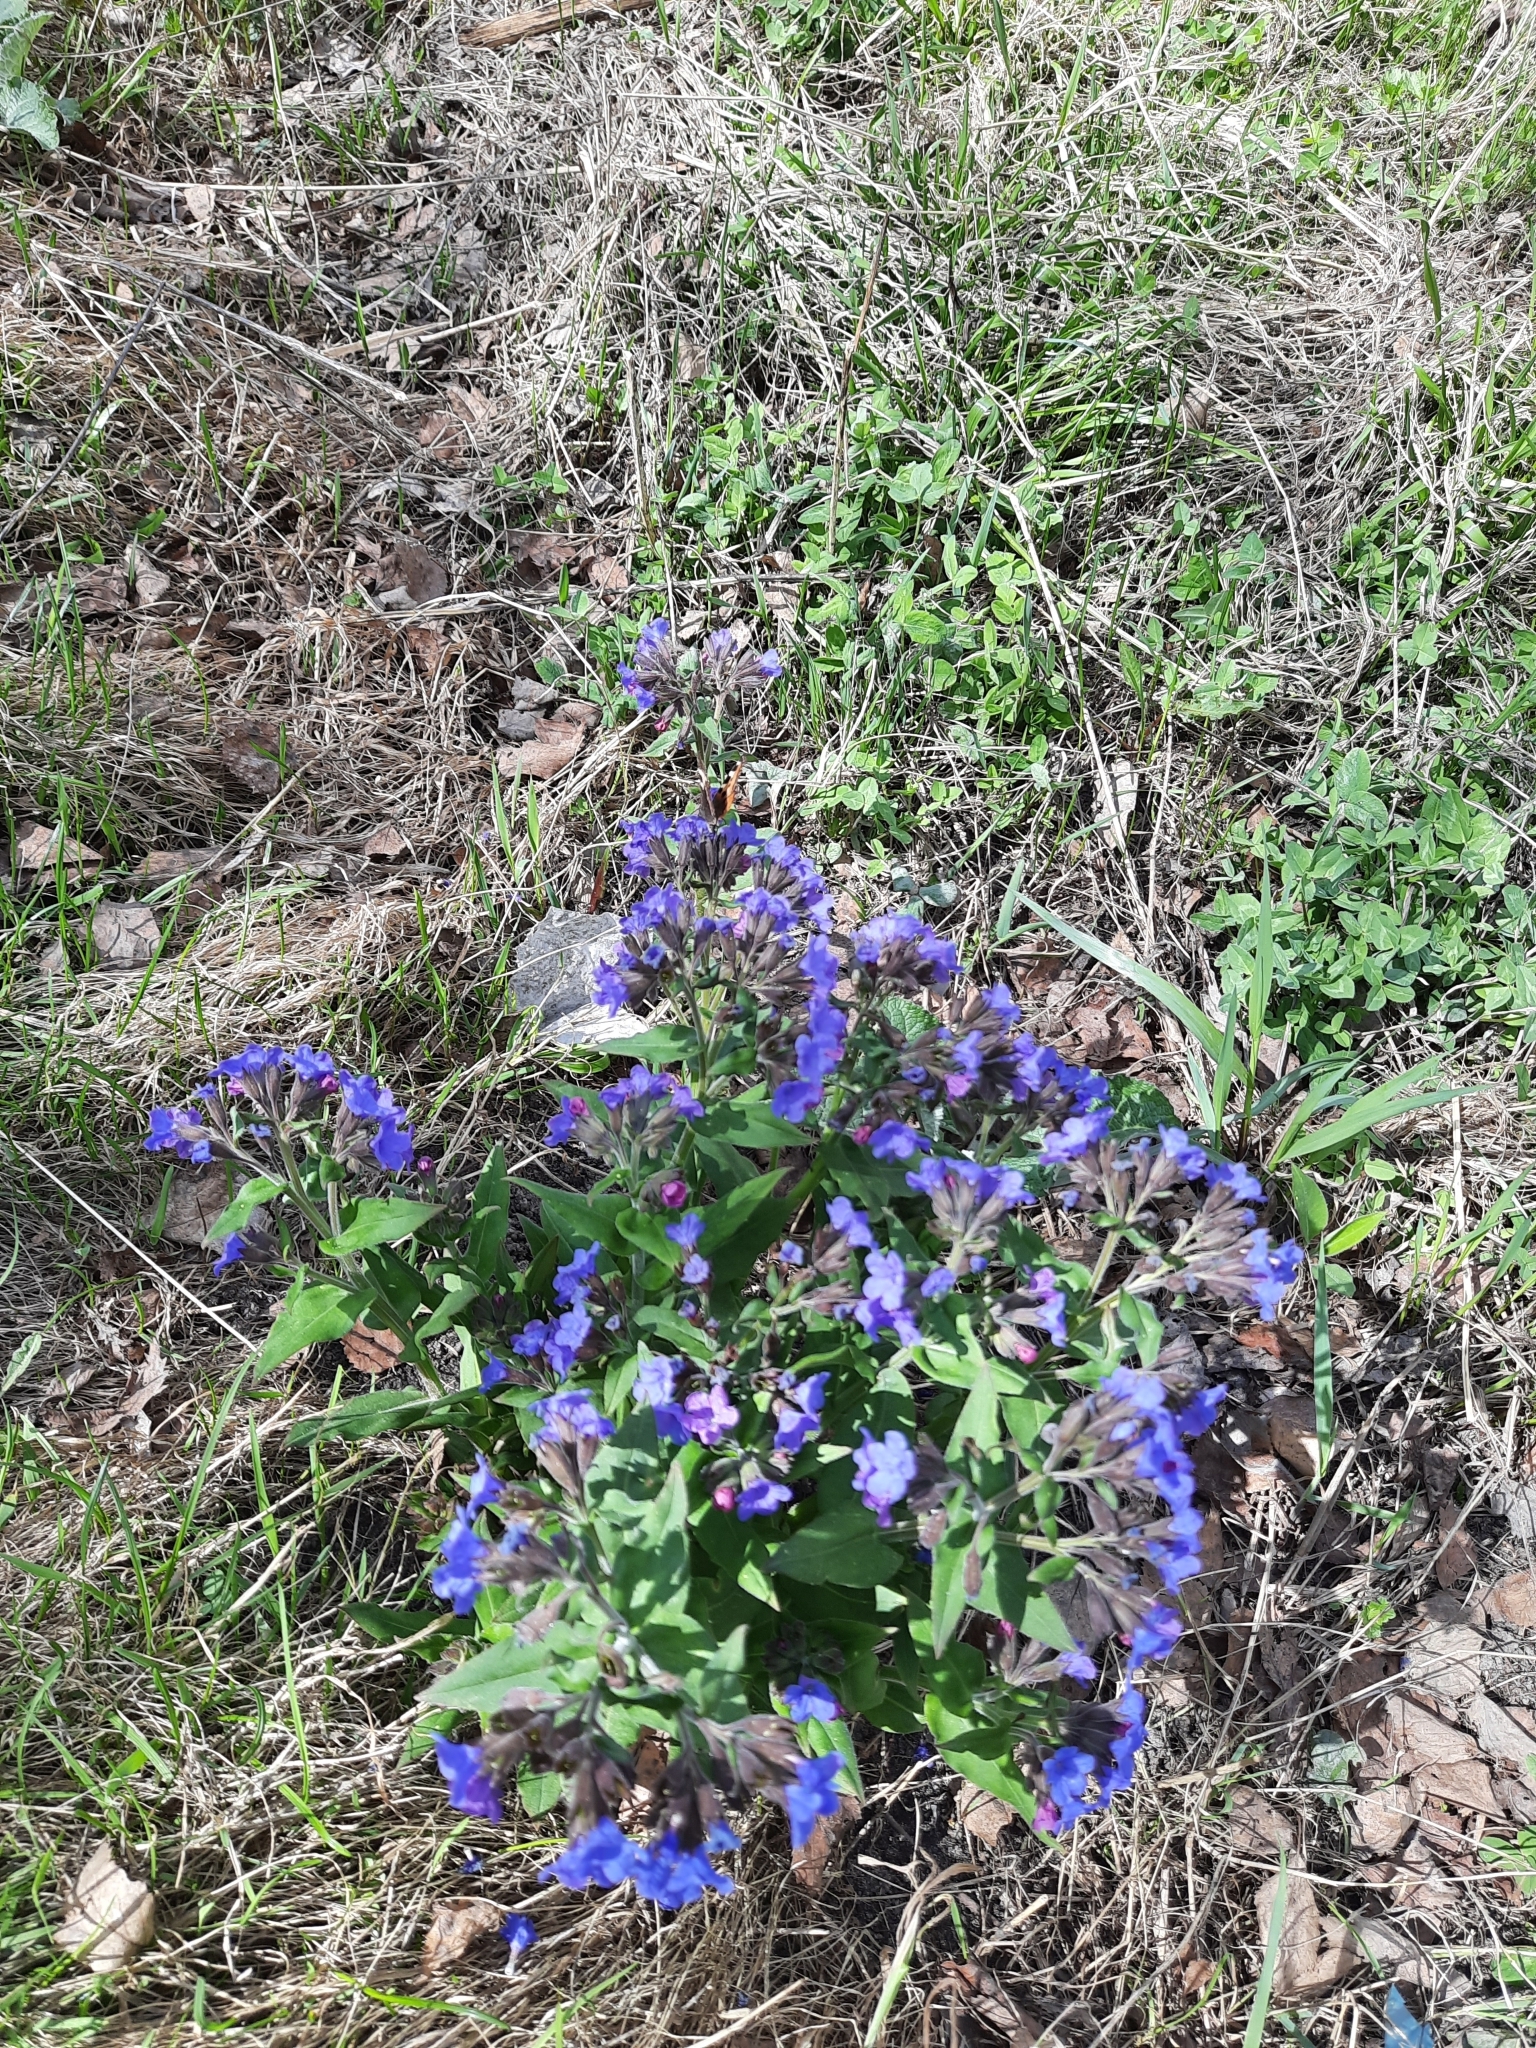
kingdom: Plantae
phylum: Tracheophyta
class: Magnoliopsida
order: Boraginales
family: Boraginaceae
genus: Pulmonaria
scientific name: Pulmonaria mollis
